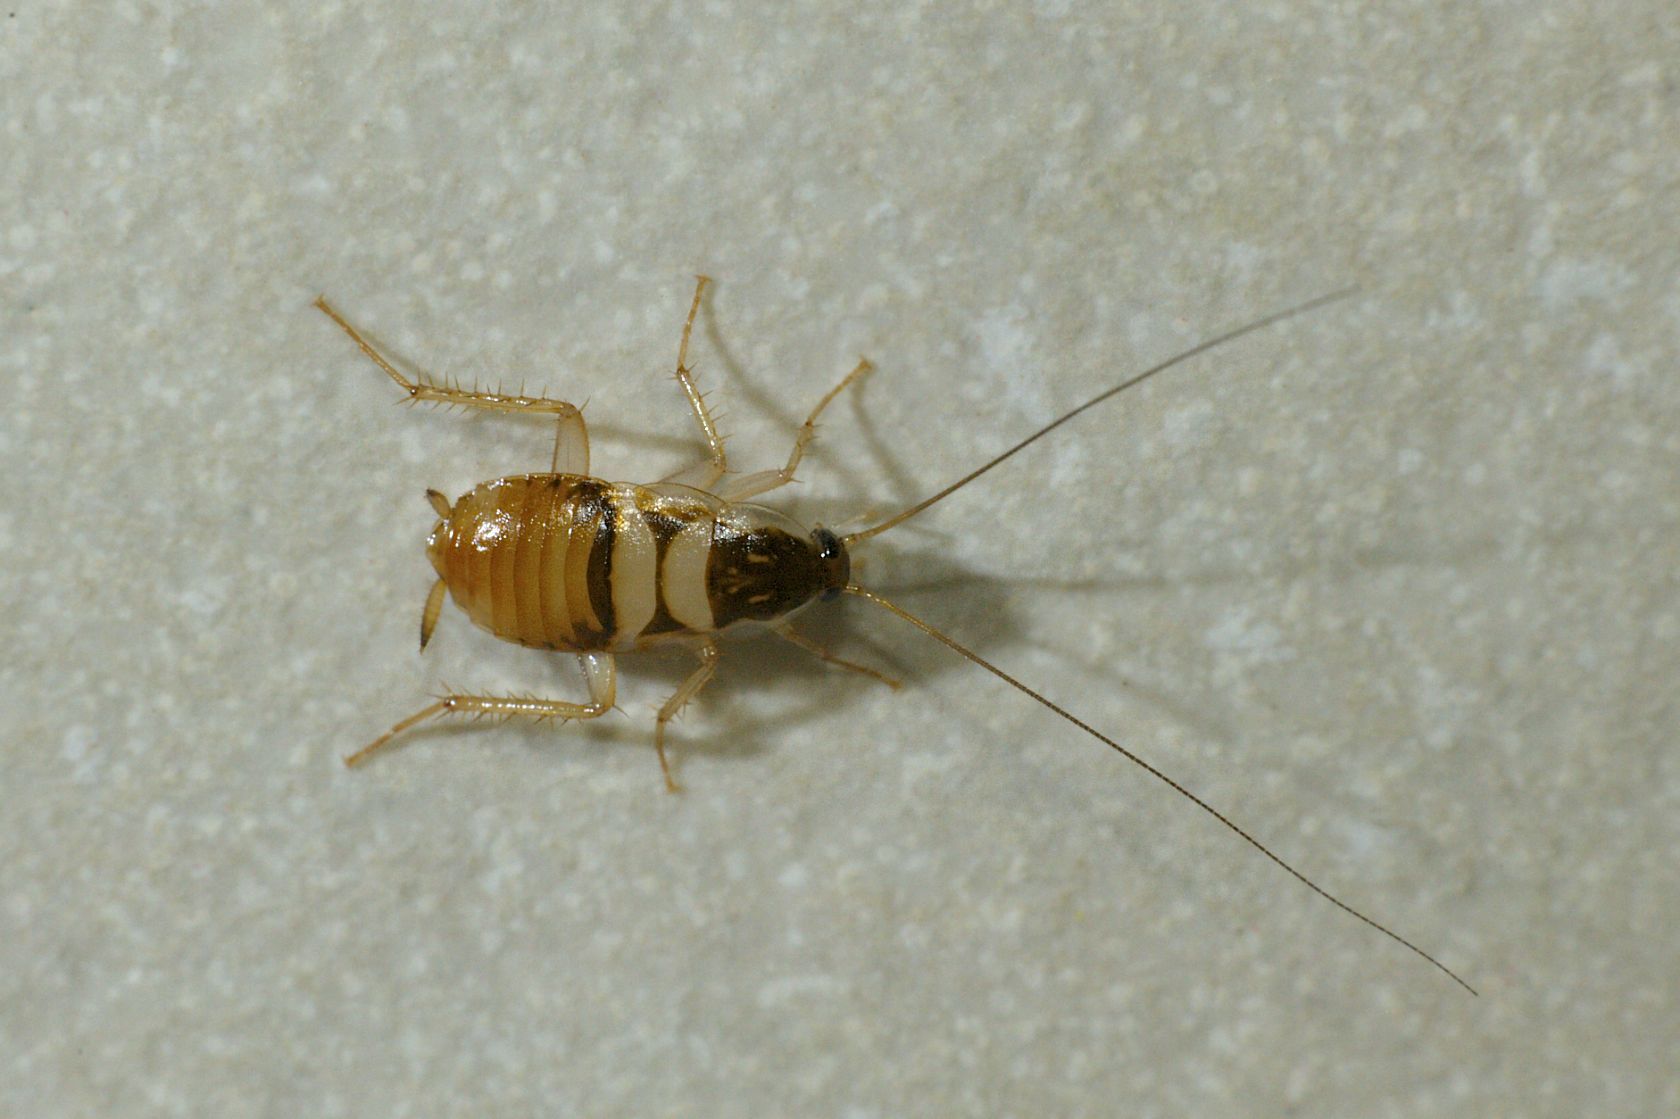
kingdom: Animalia
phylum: Arthropoda
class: Insecta
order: Blattodea
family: Ectobiidae
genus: Supella
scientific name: Supella longipalpa
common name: Brown-banded cockroach
